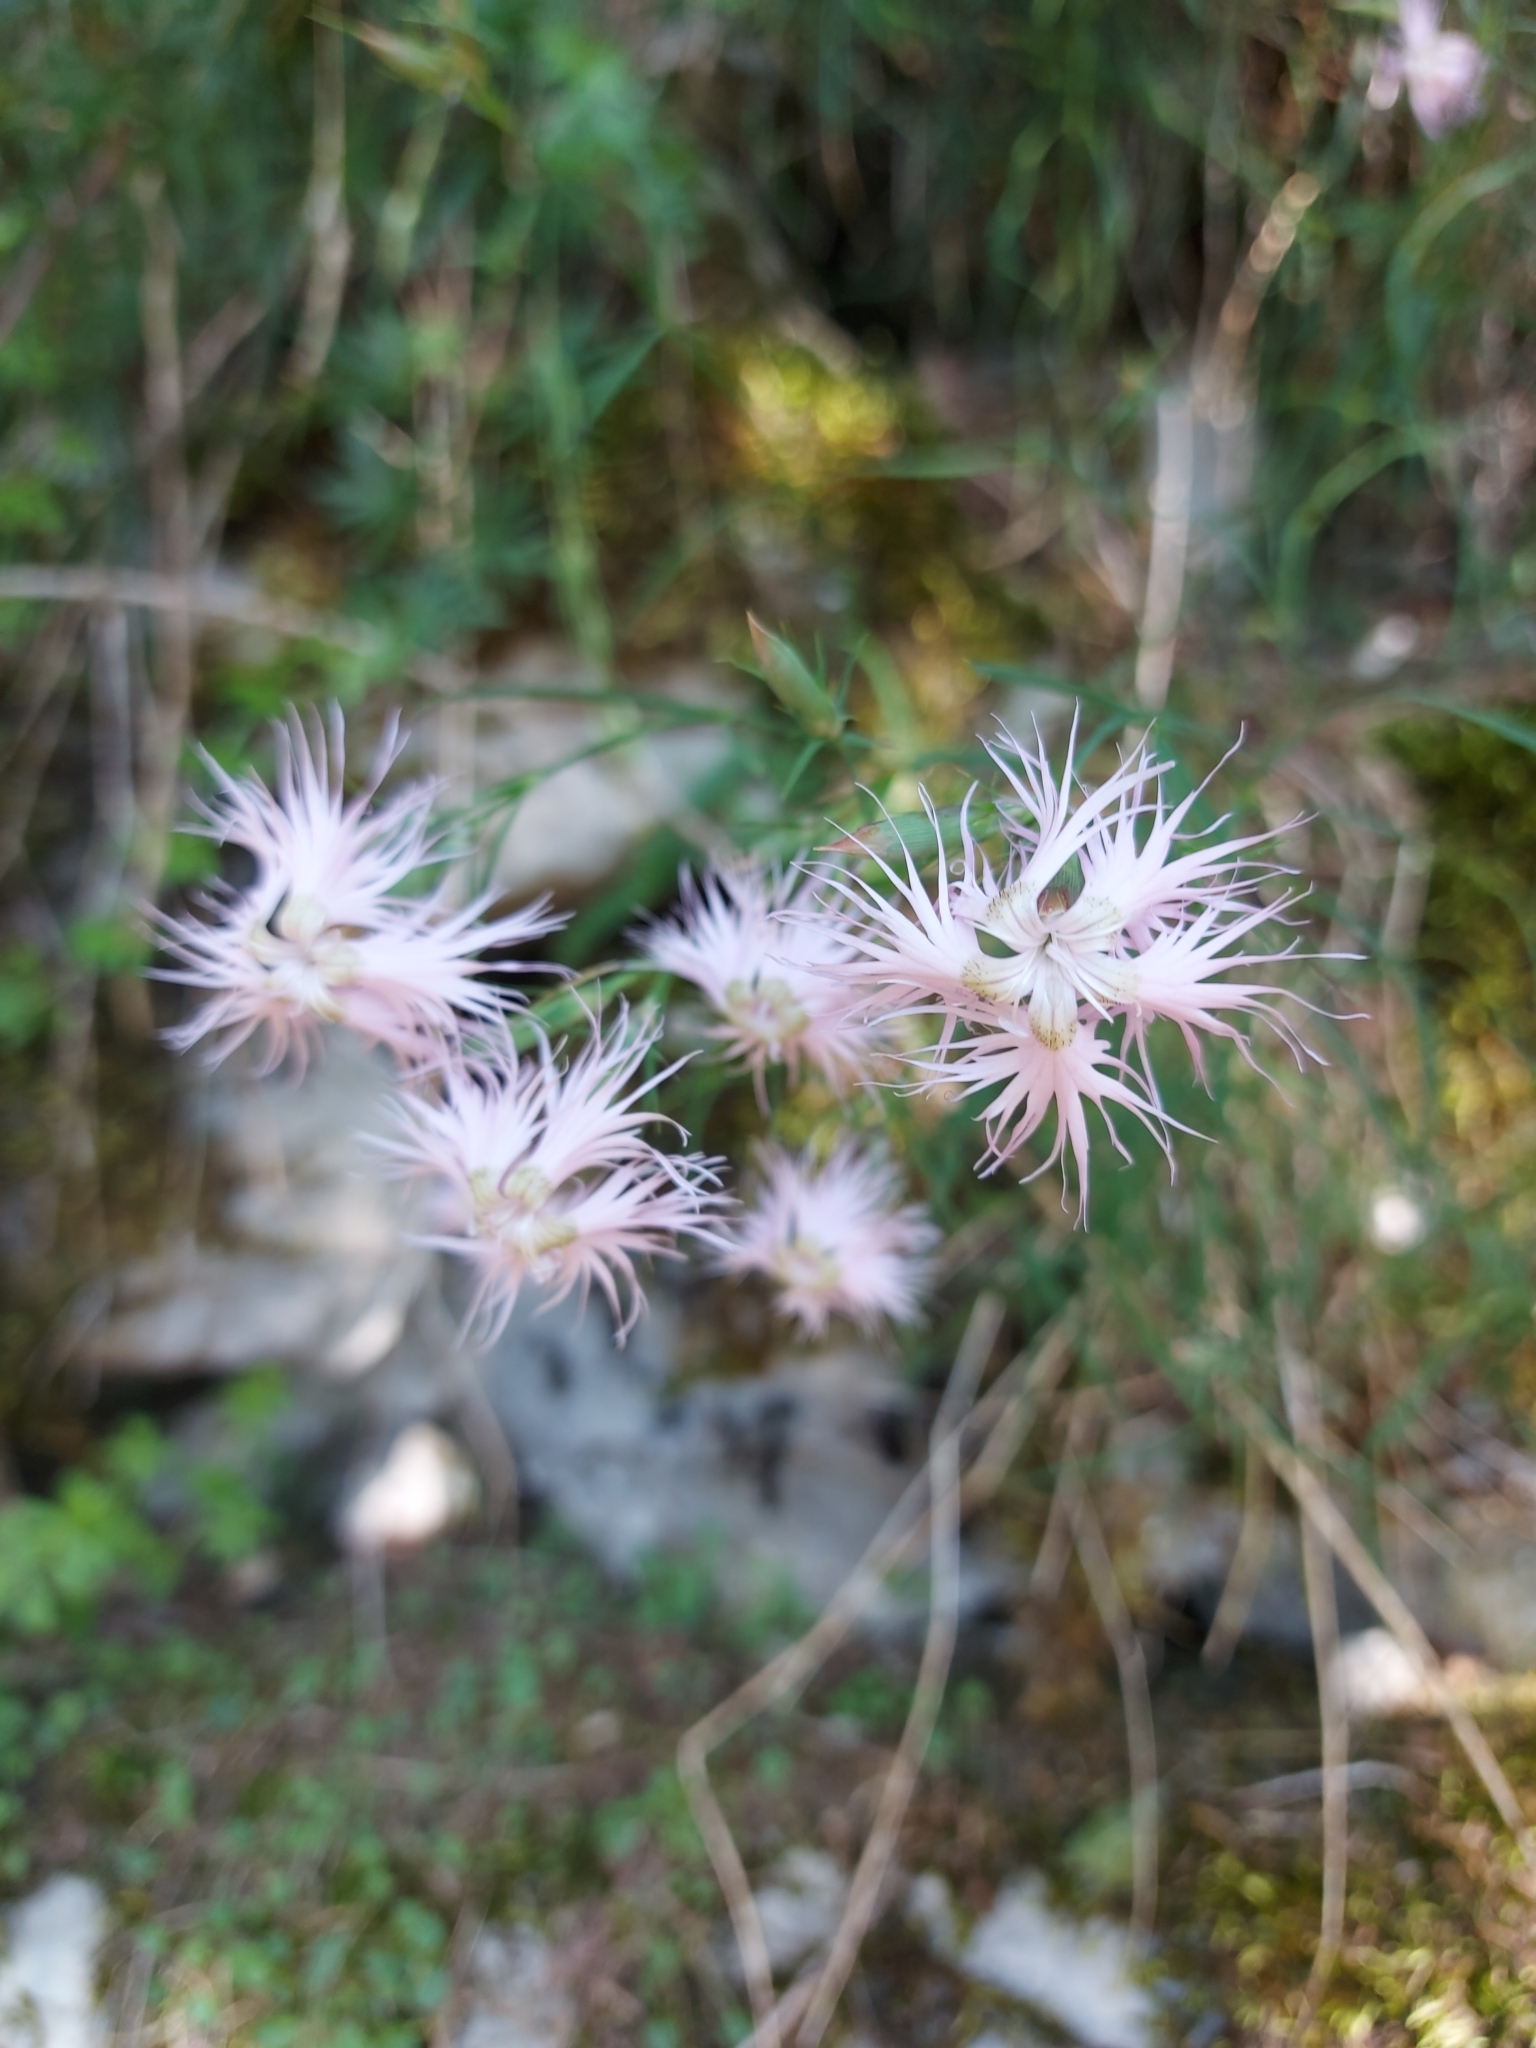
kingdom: Plantae
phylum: Tracheophyta
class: Magnoliopsida
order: Caryophyllales
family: Caryophyllaceae
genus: Dianthus
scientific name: Dianthus hyssopifolius
